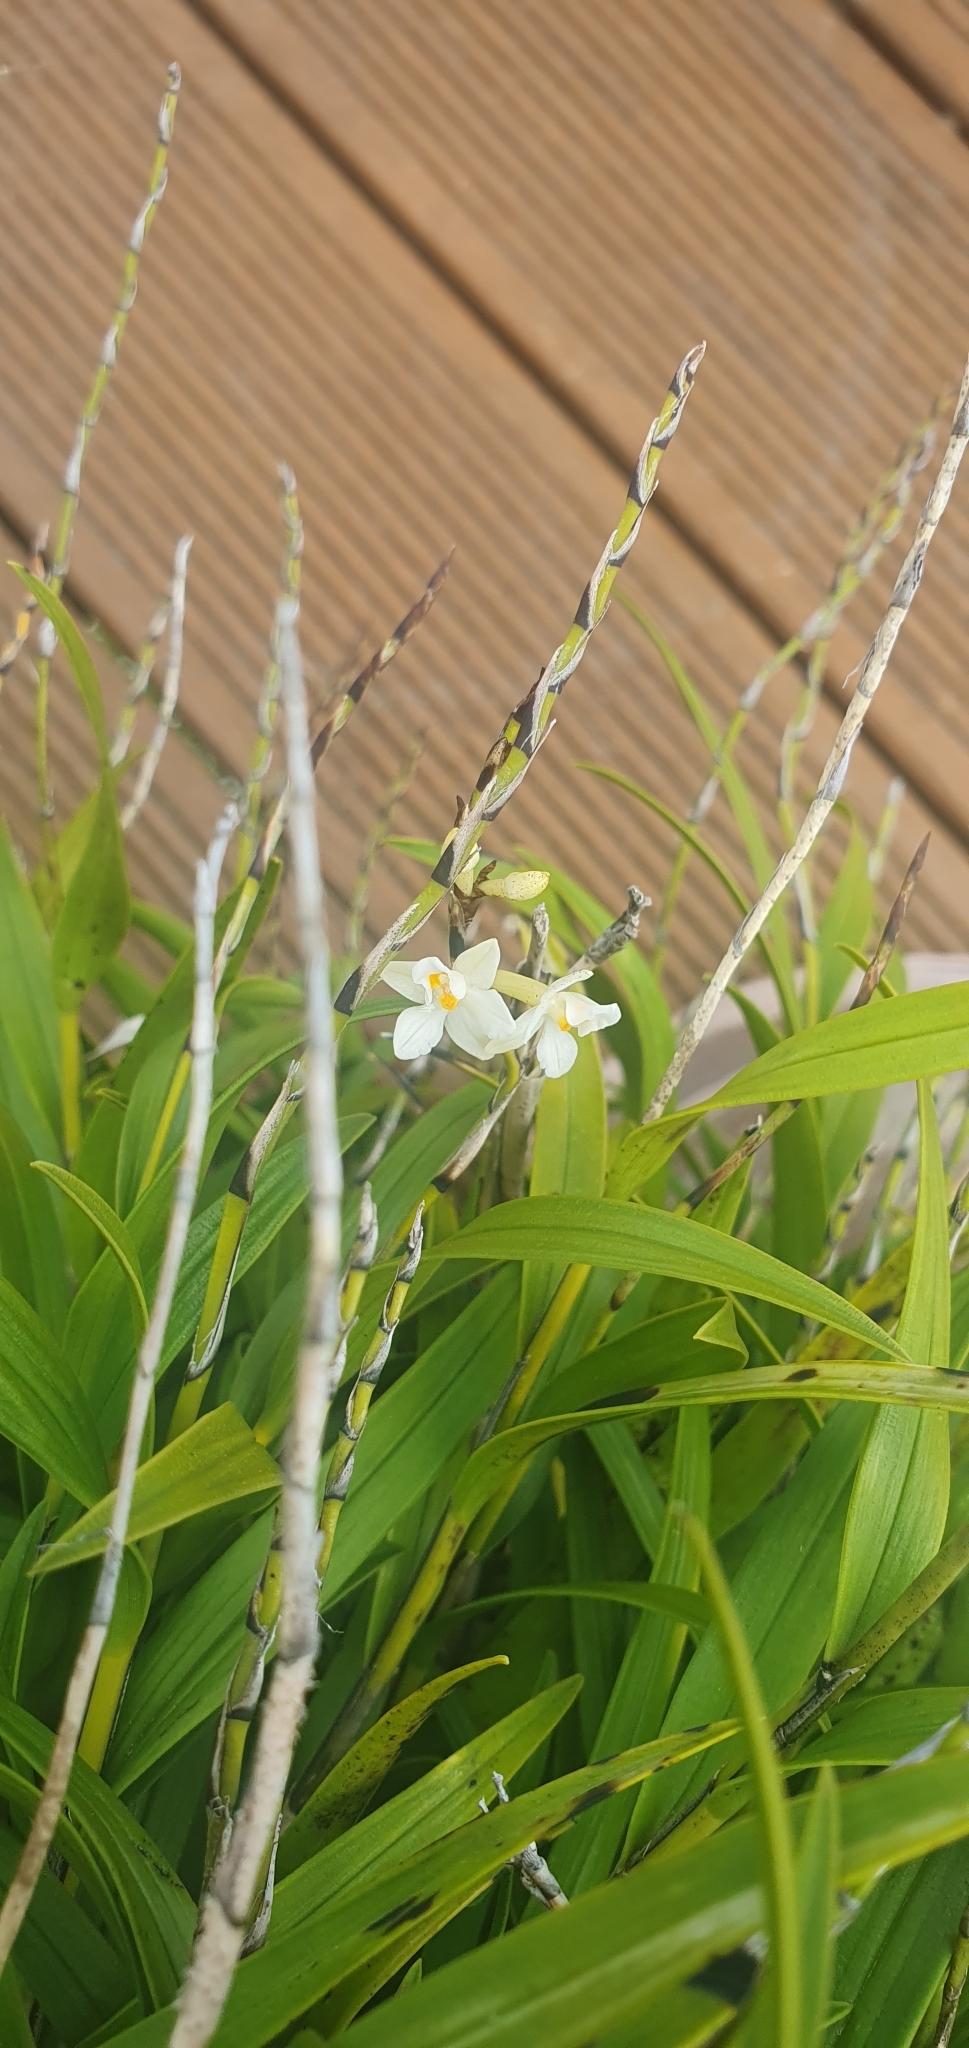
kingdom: Plantae
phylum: Tracheophyta
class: Liliopsida
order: Asparagales
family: Orchidaceae
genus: Earina
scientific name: Earina autumnalis
